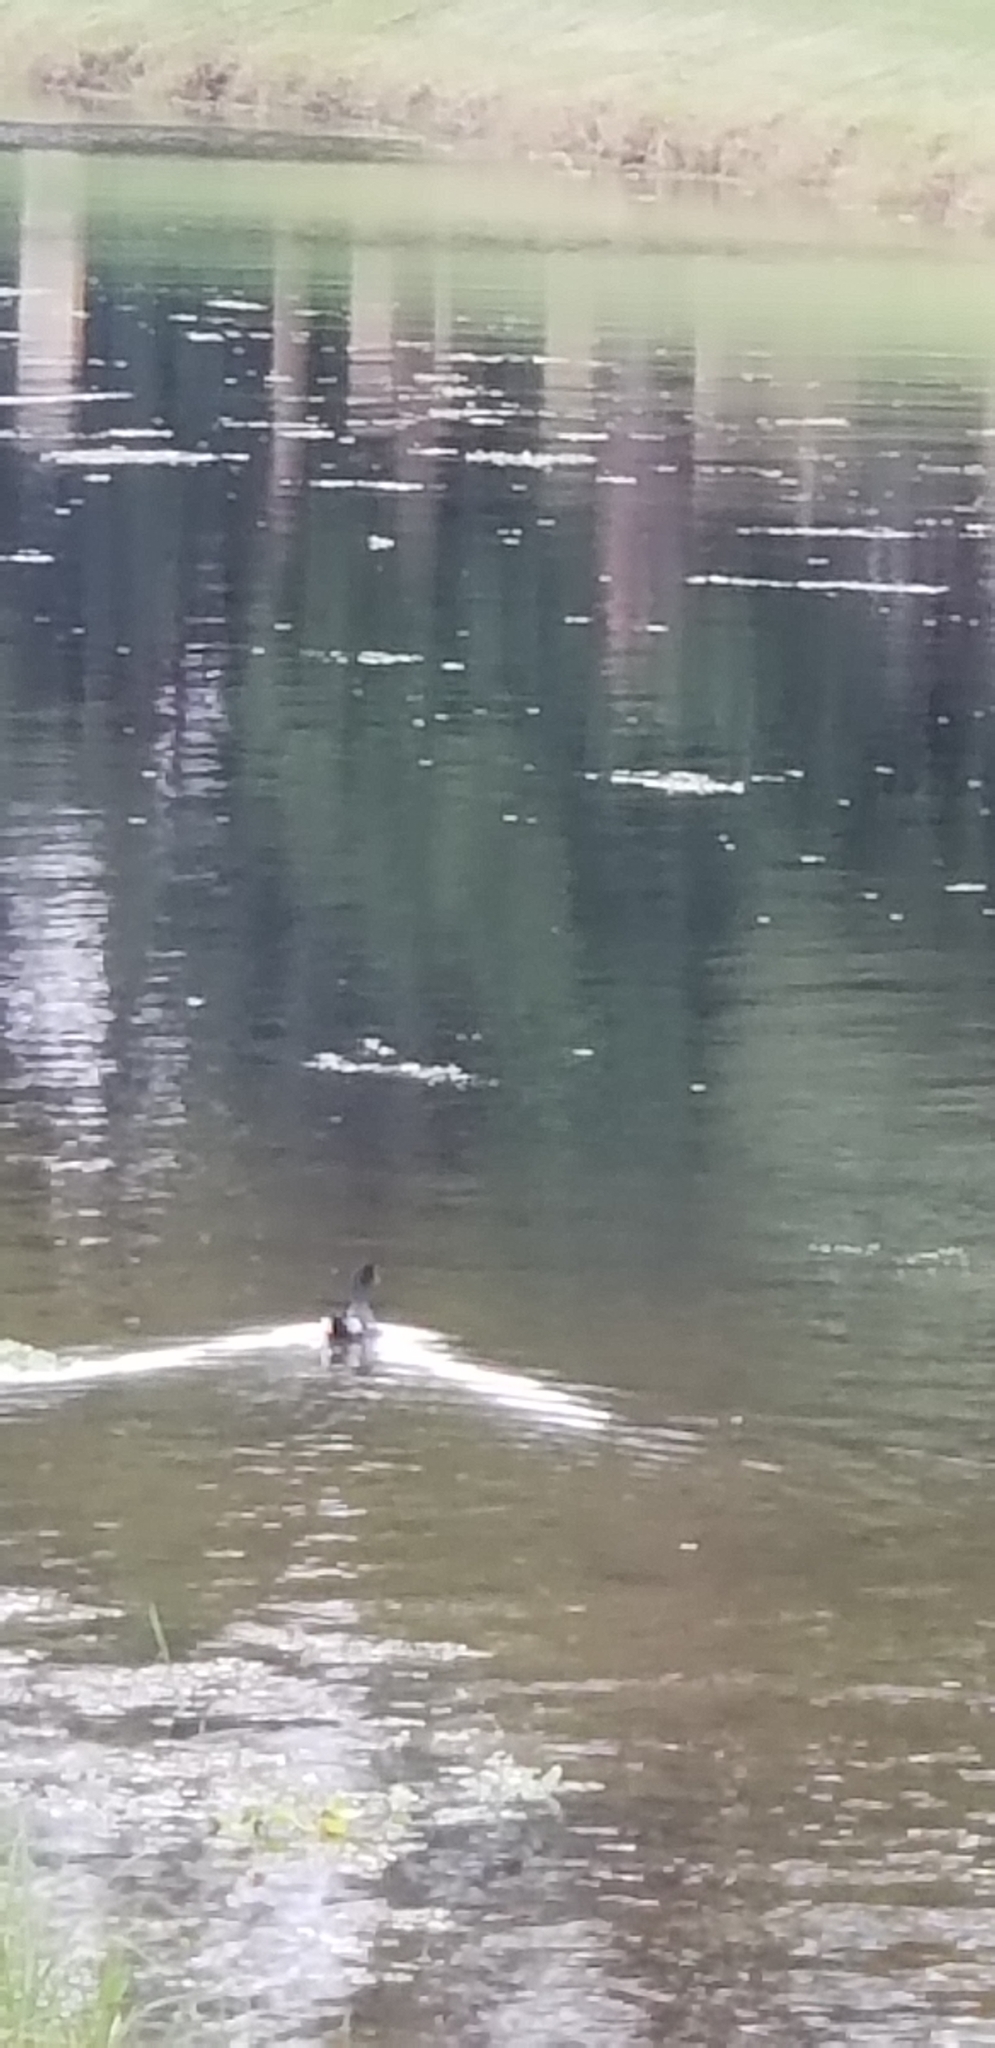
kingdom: Animalia
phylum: Chordata
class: Aves
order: Gruiformes
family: Rallidae
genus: Gallinula
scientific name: Gallinula chloropus
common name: Common moorhen
